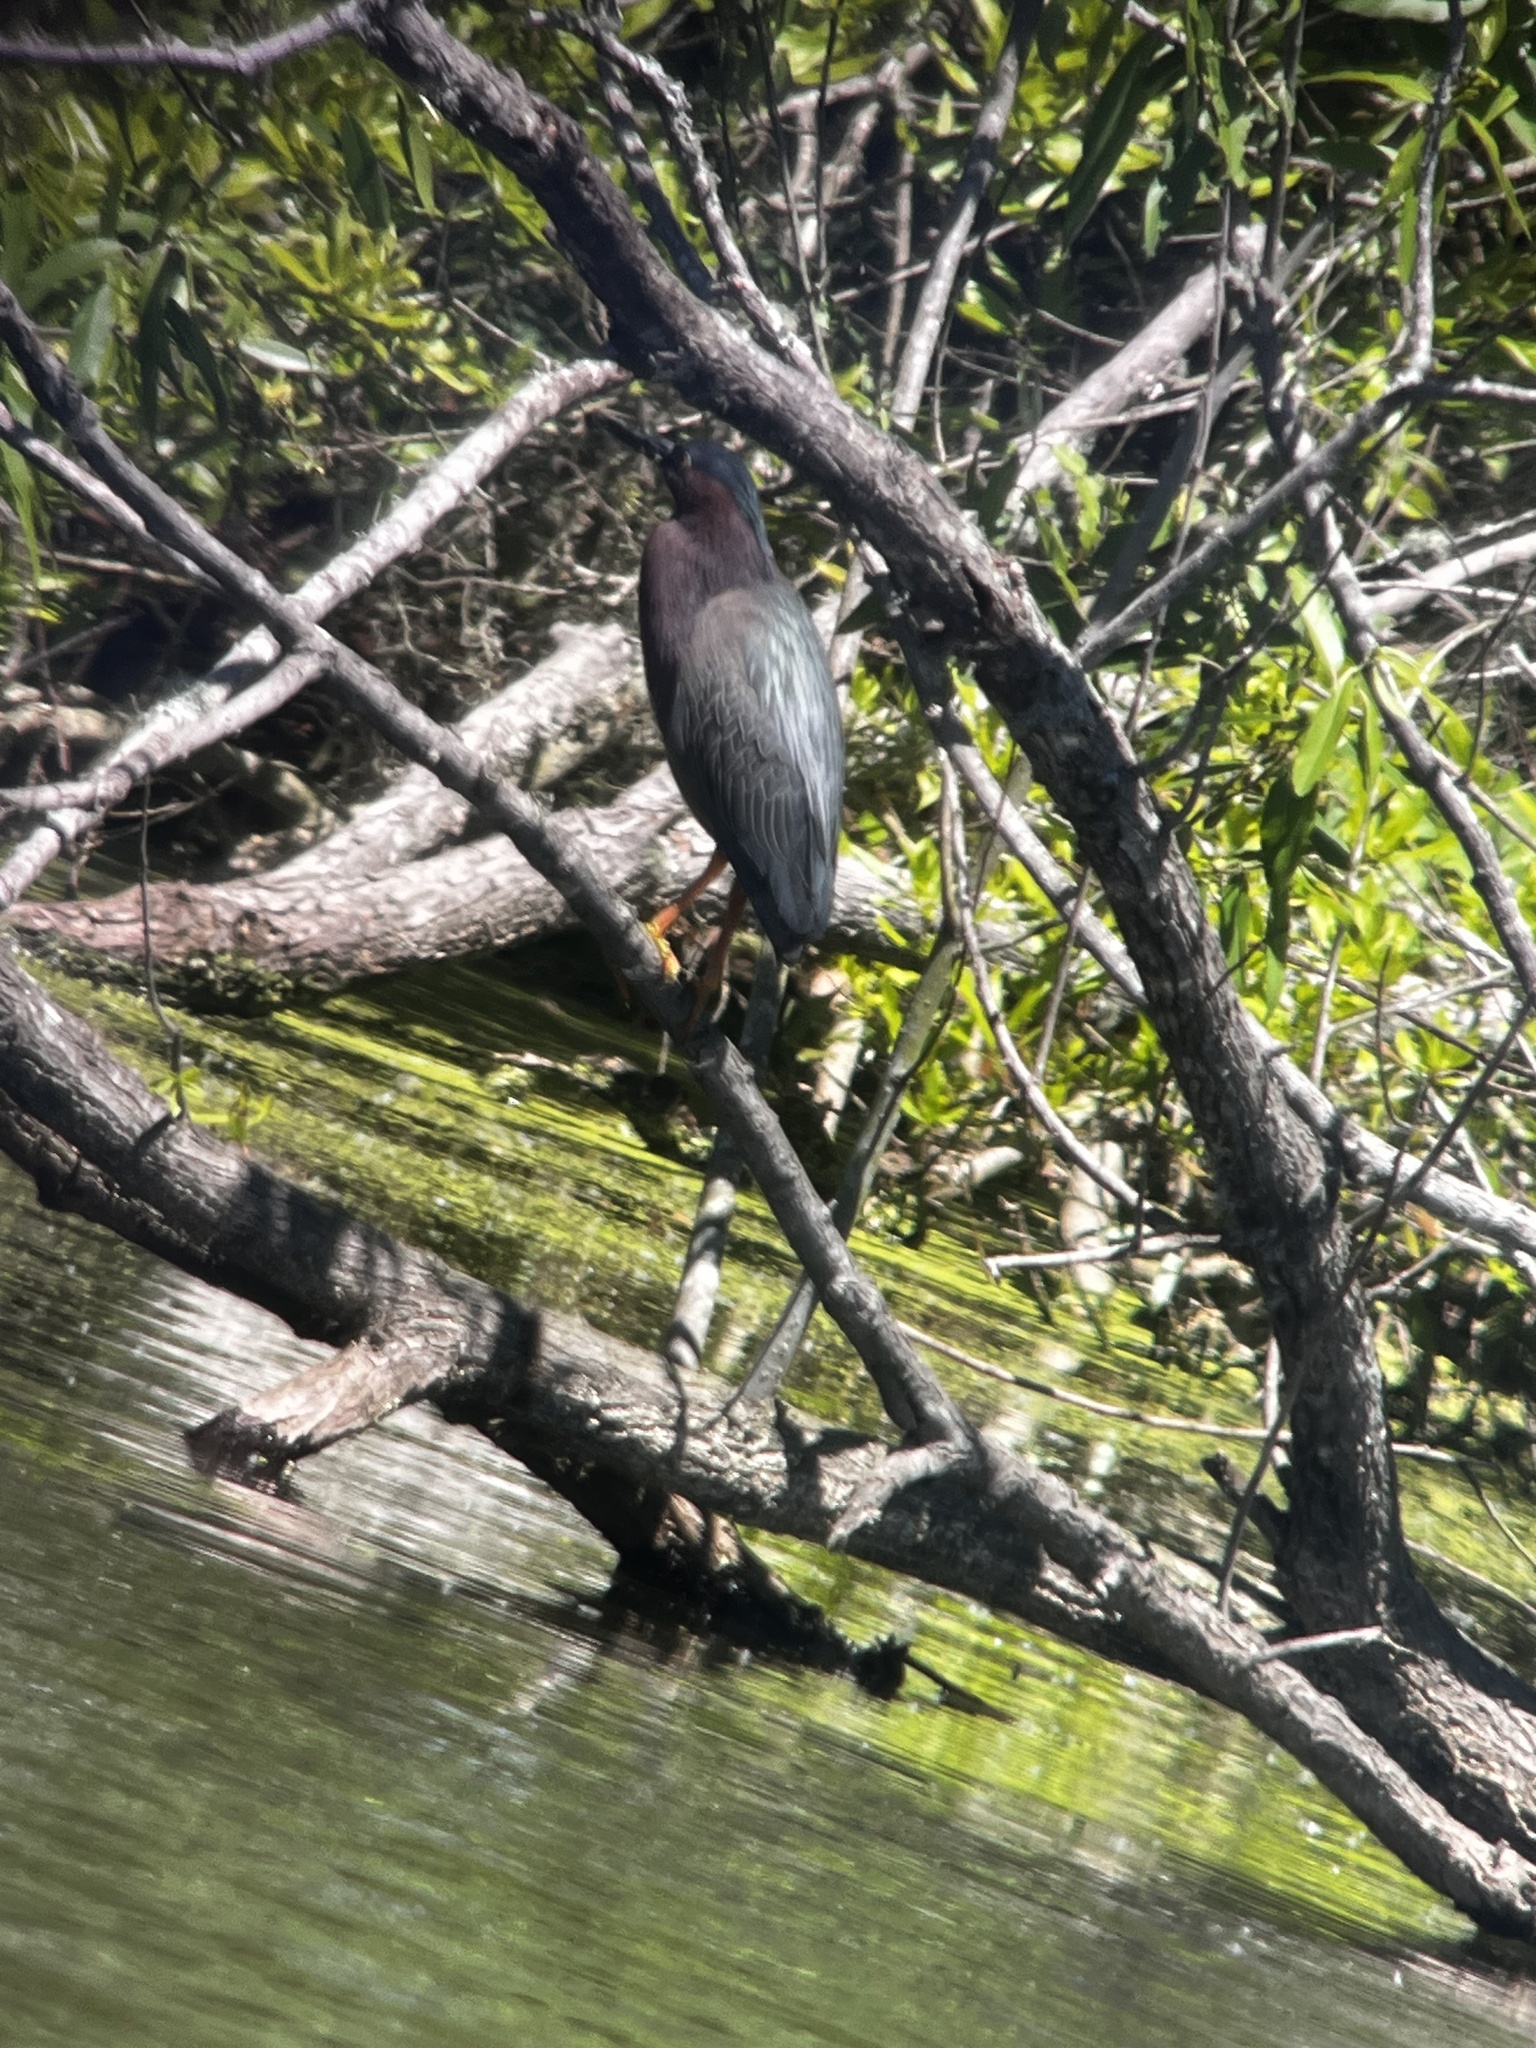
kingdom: Animalia
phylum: Chordata
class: Aves
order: Pelecaniformes
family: Ardeidae
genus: Butorides
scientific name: Butorides virescens
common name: Green heron
